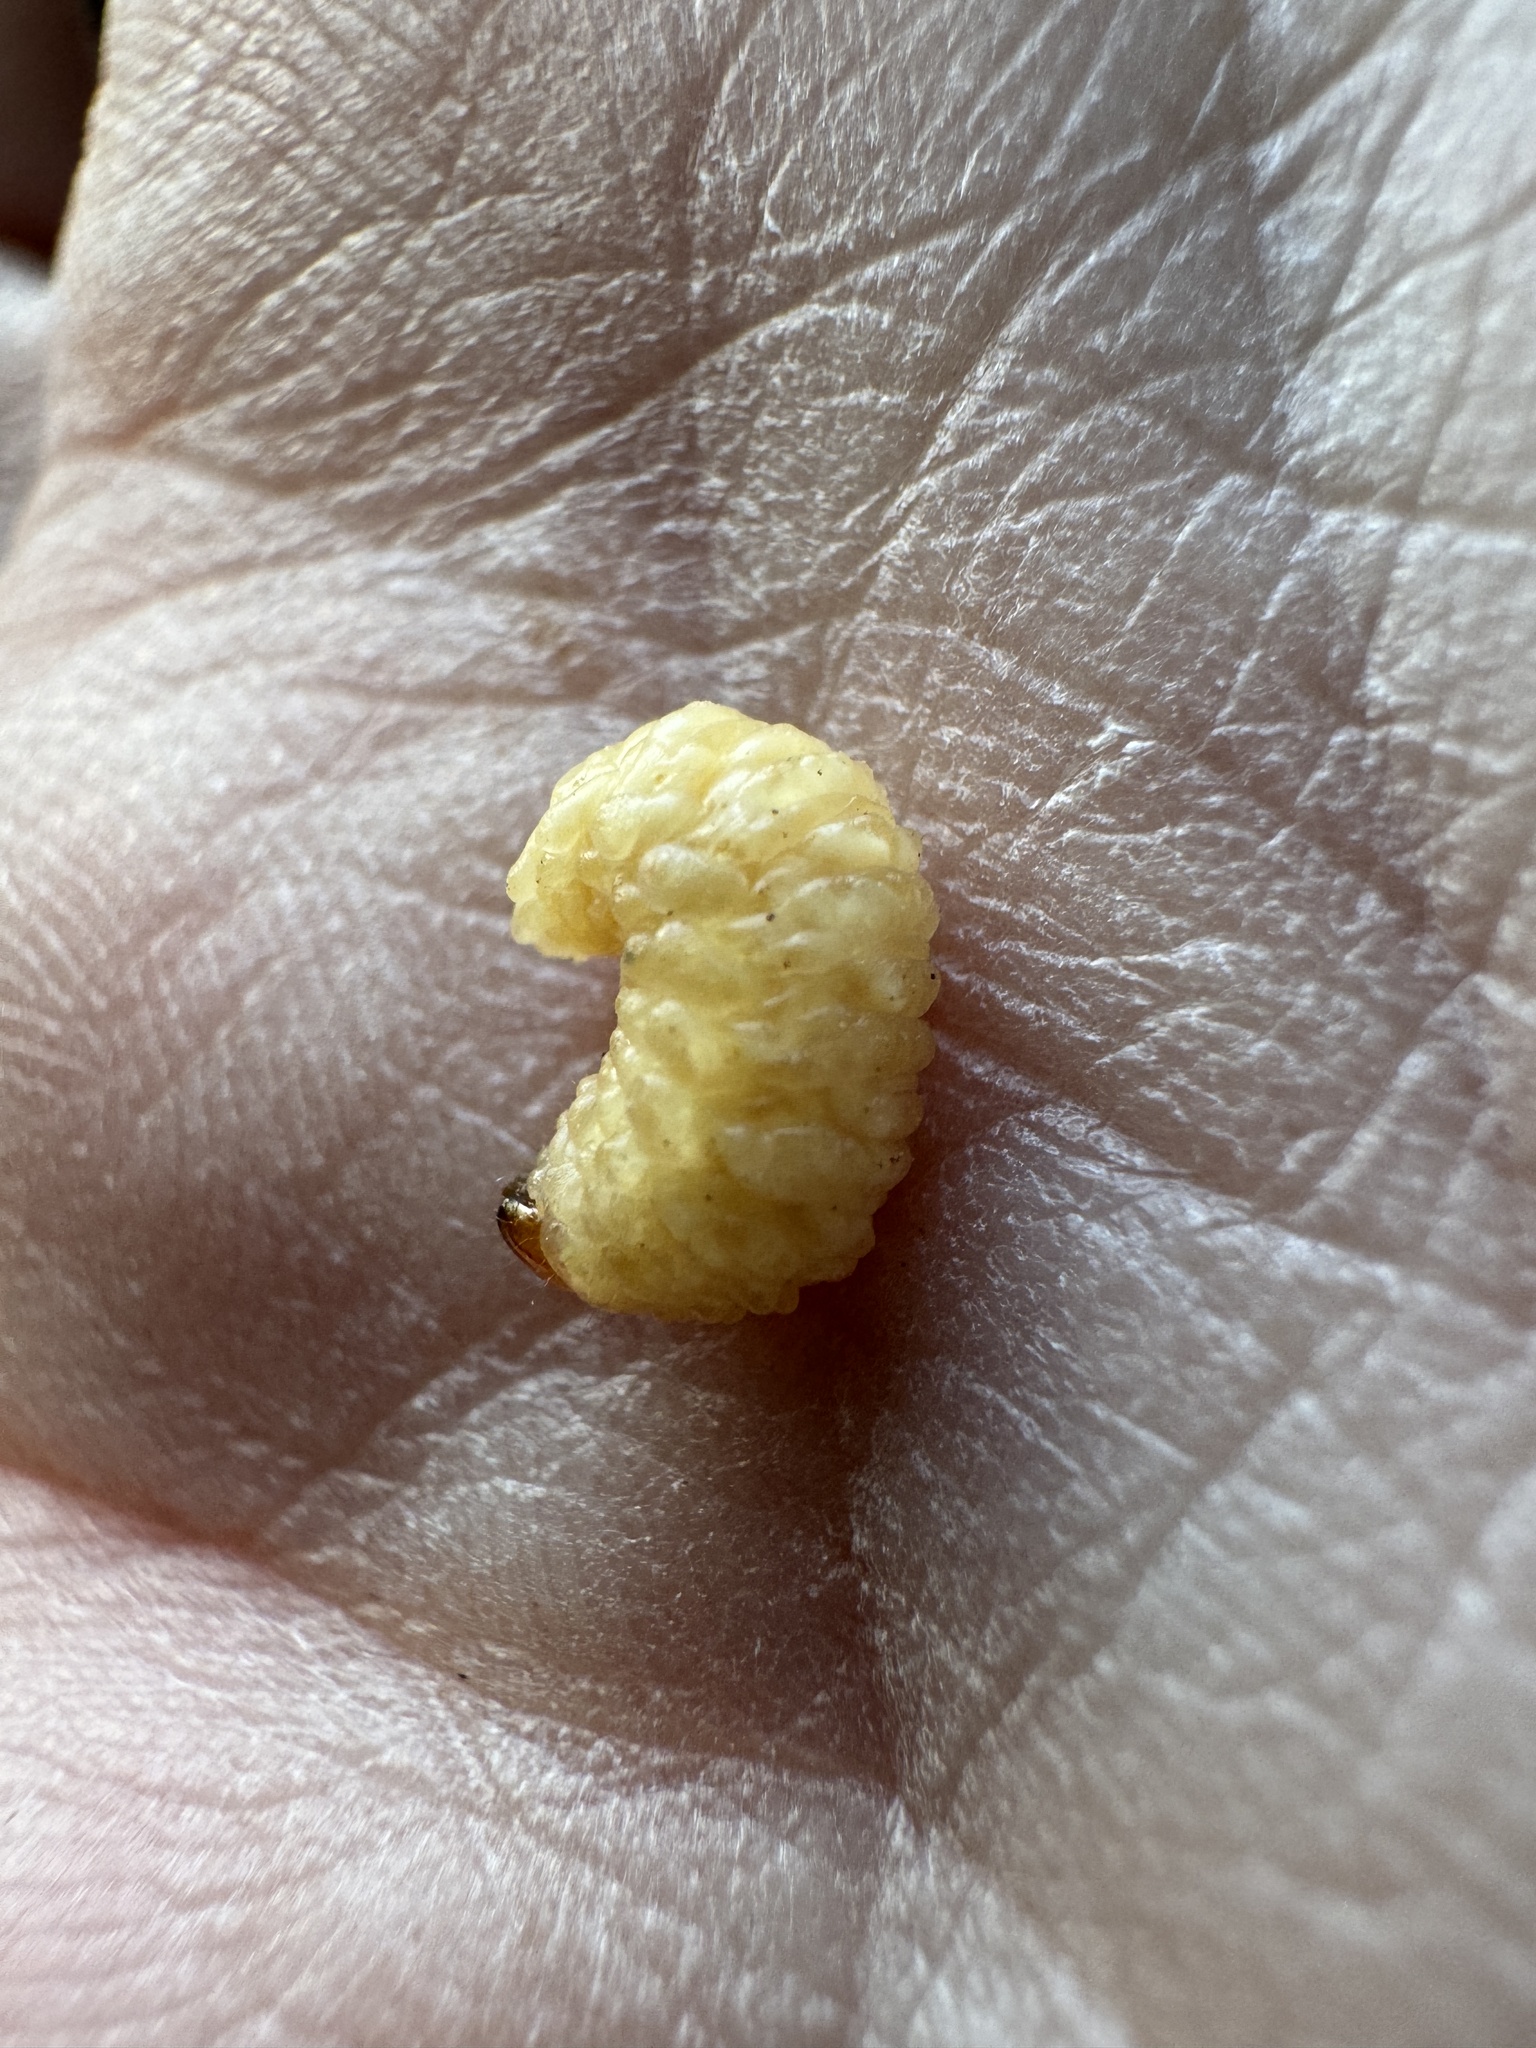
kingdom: Animalia
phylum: Arthropoda
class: Insecta
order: Coleoptera
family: Eurhynchidae
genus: Eurhinus
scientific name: Eurhinus magnificus
